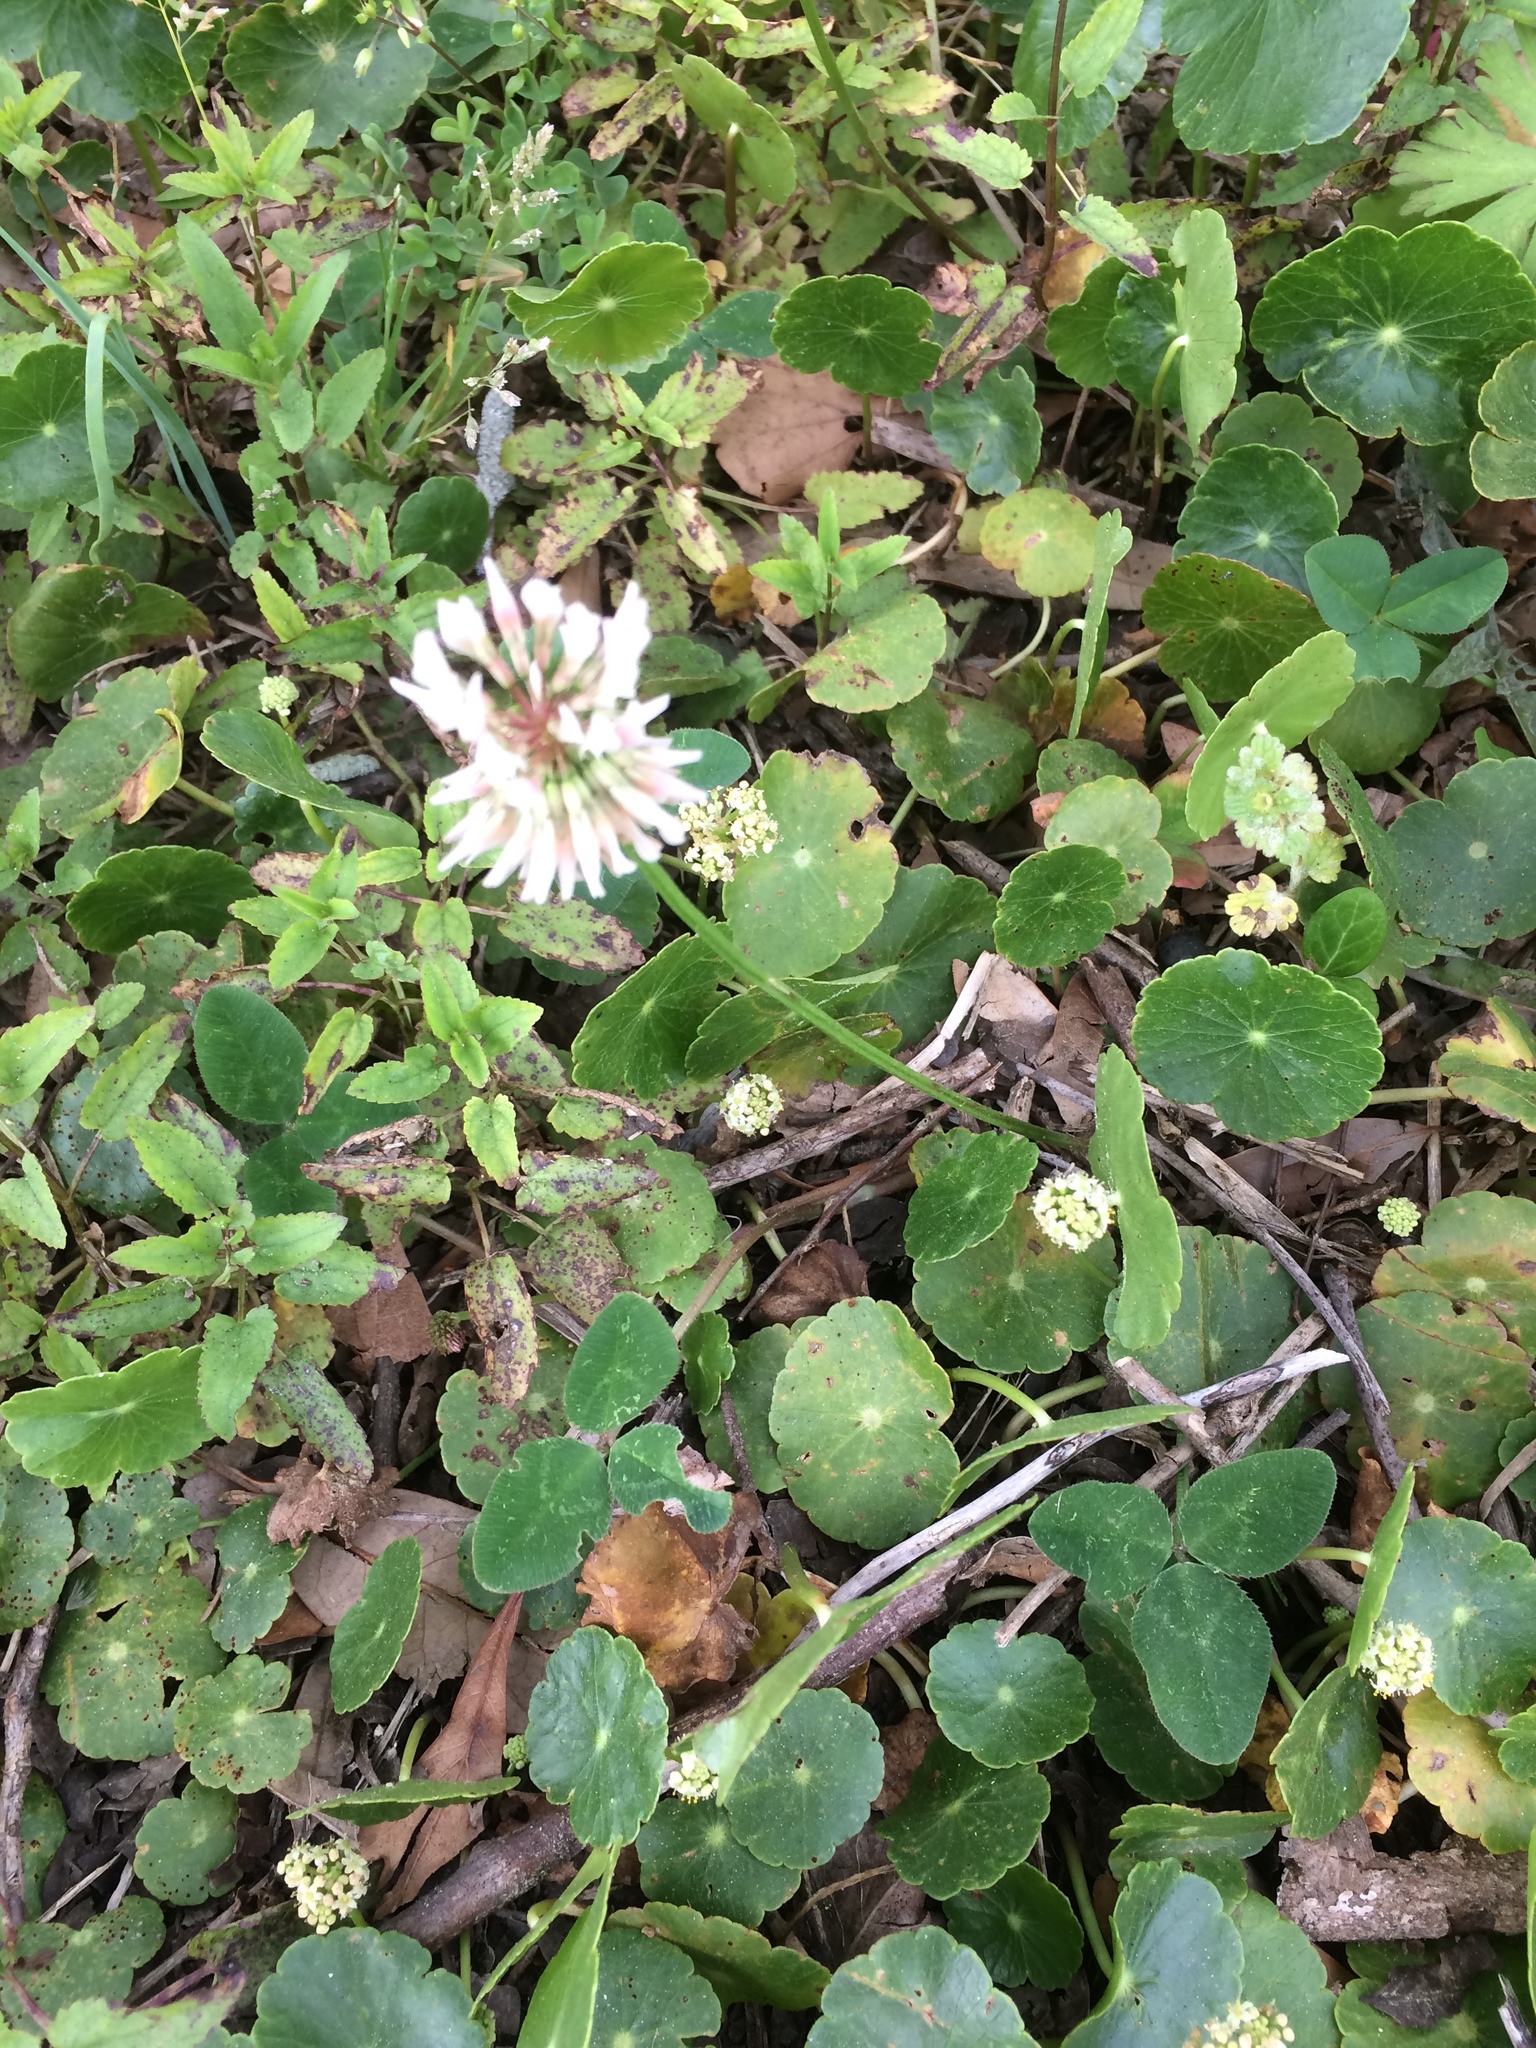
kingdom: Plantae
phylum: Tracheophyta
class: Magnoliopsida
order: Fabales
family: Fabaceae
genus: Trifolium
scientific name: Trifolium repens
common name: White clover
